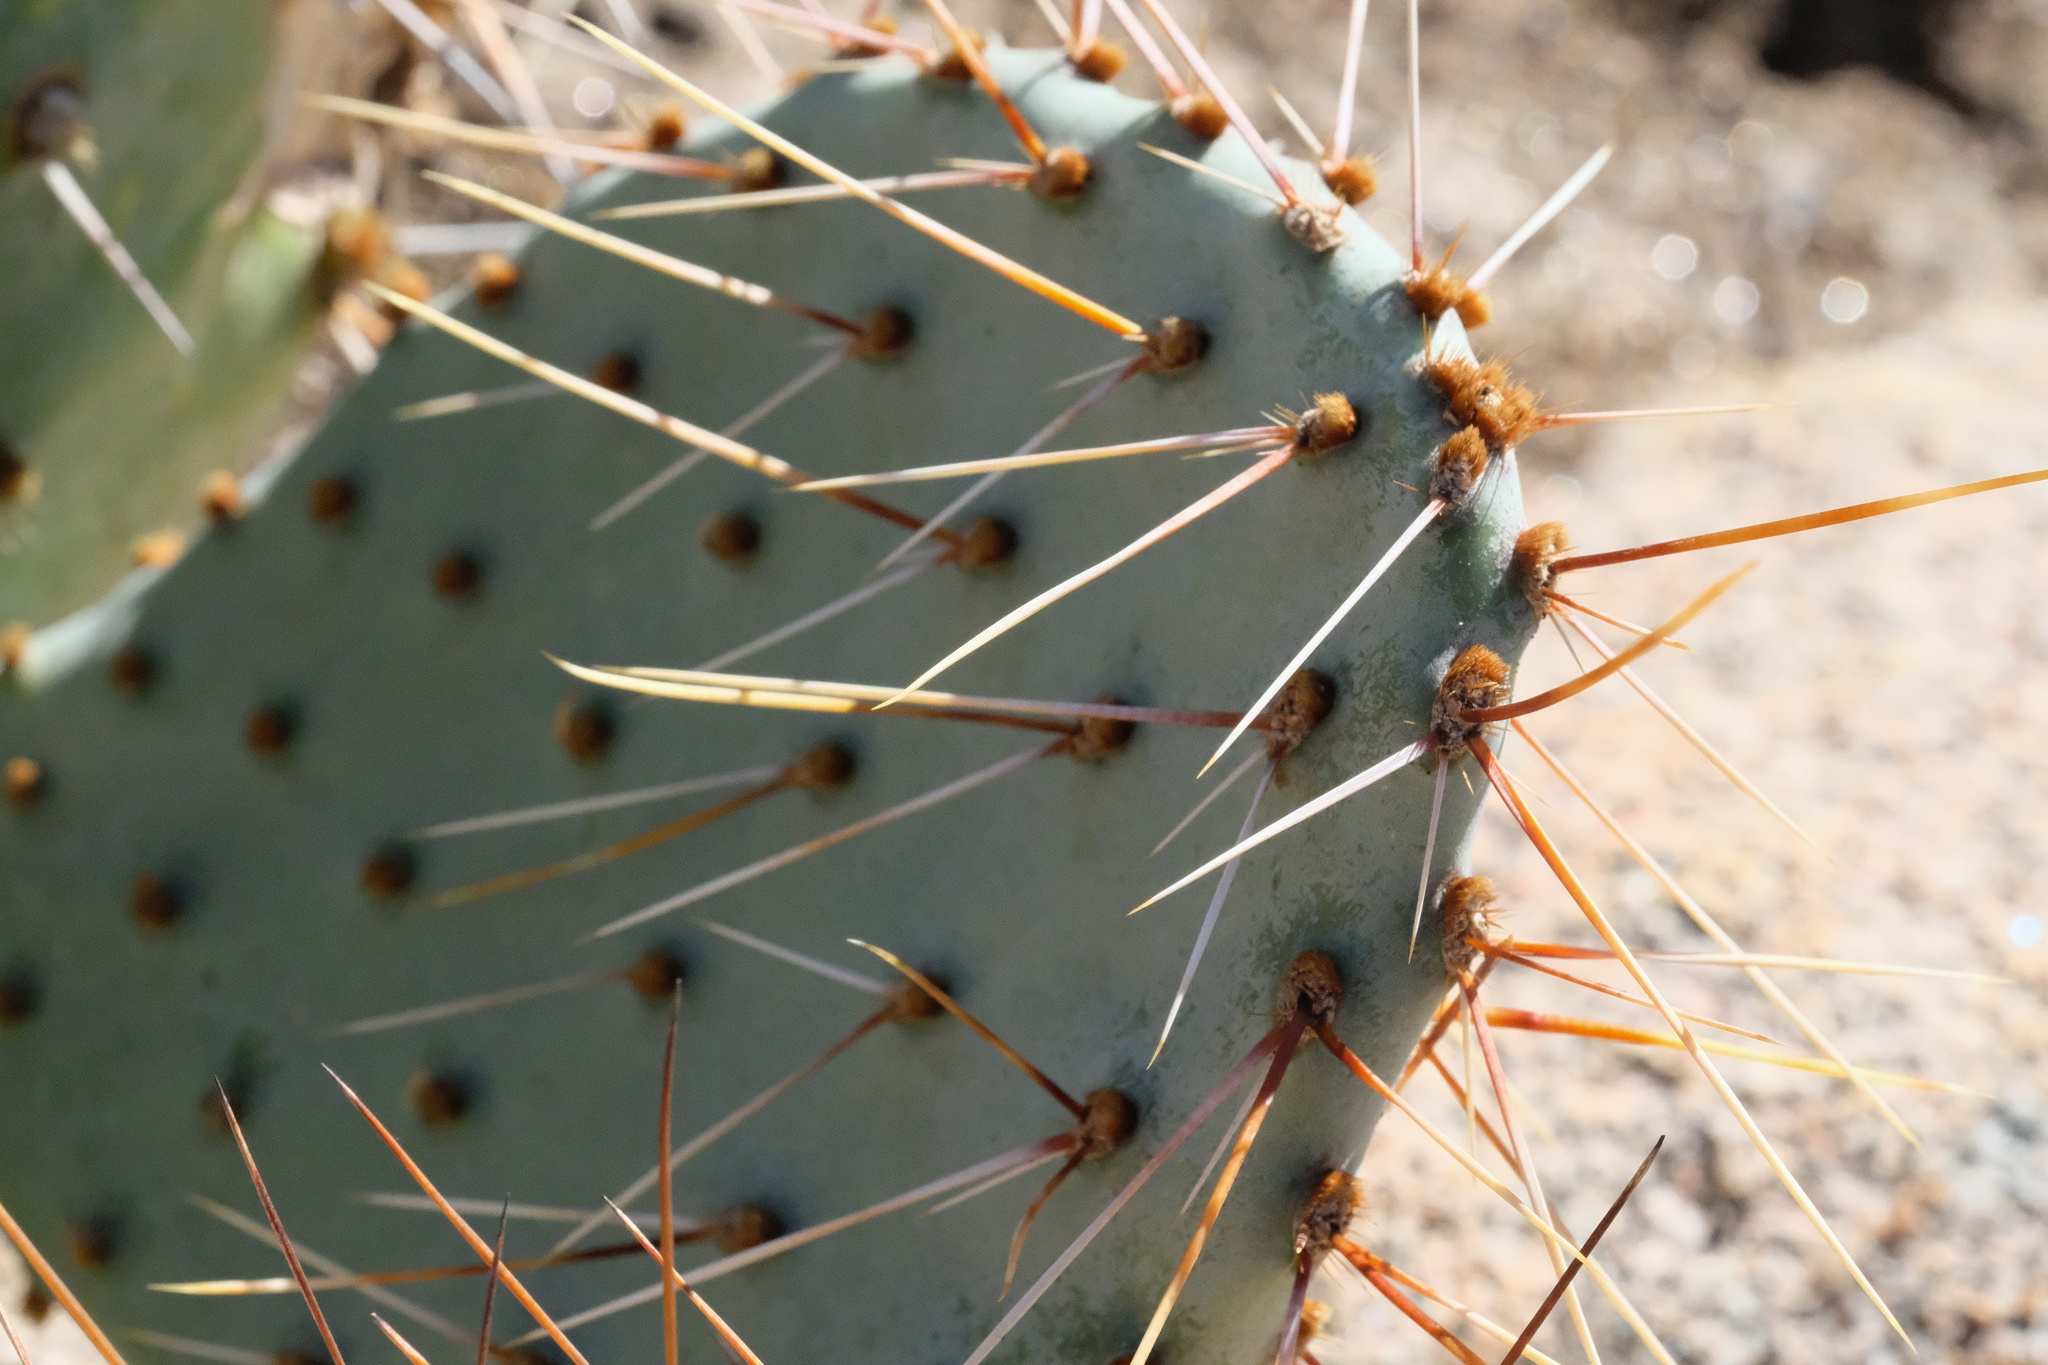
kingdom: Plantae
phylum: Tracheophyta
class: Magnoliopsida
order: Caryophyllales
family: Cactaceae
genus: Opuntia
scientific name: Opuntia phaeacantha
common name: New mexico prickly-pear
